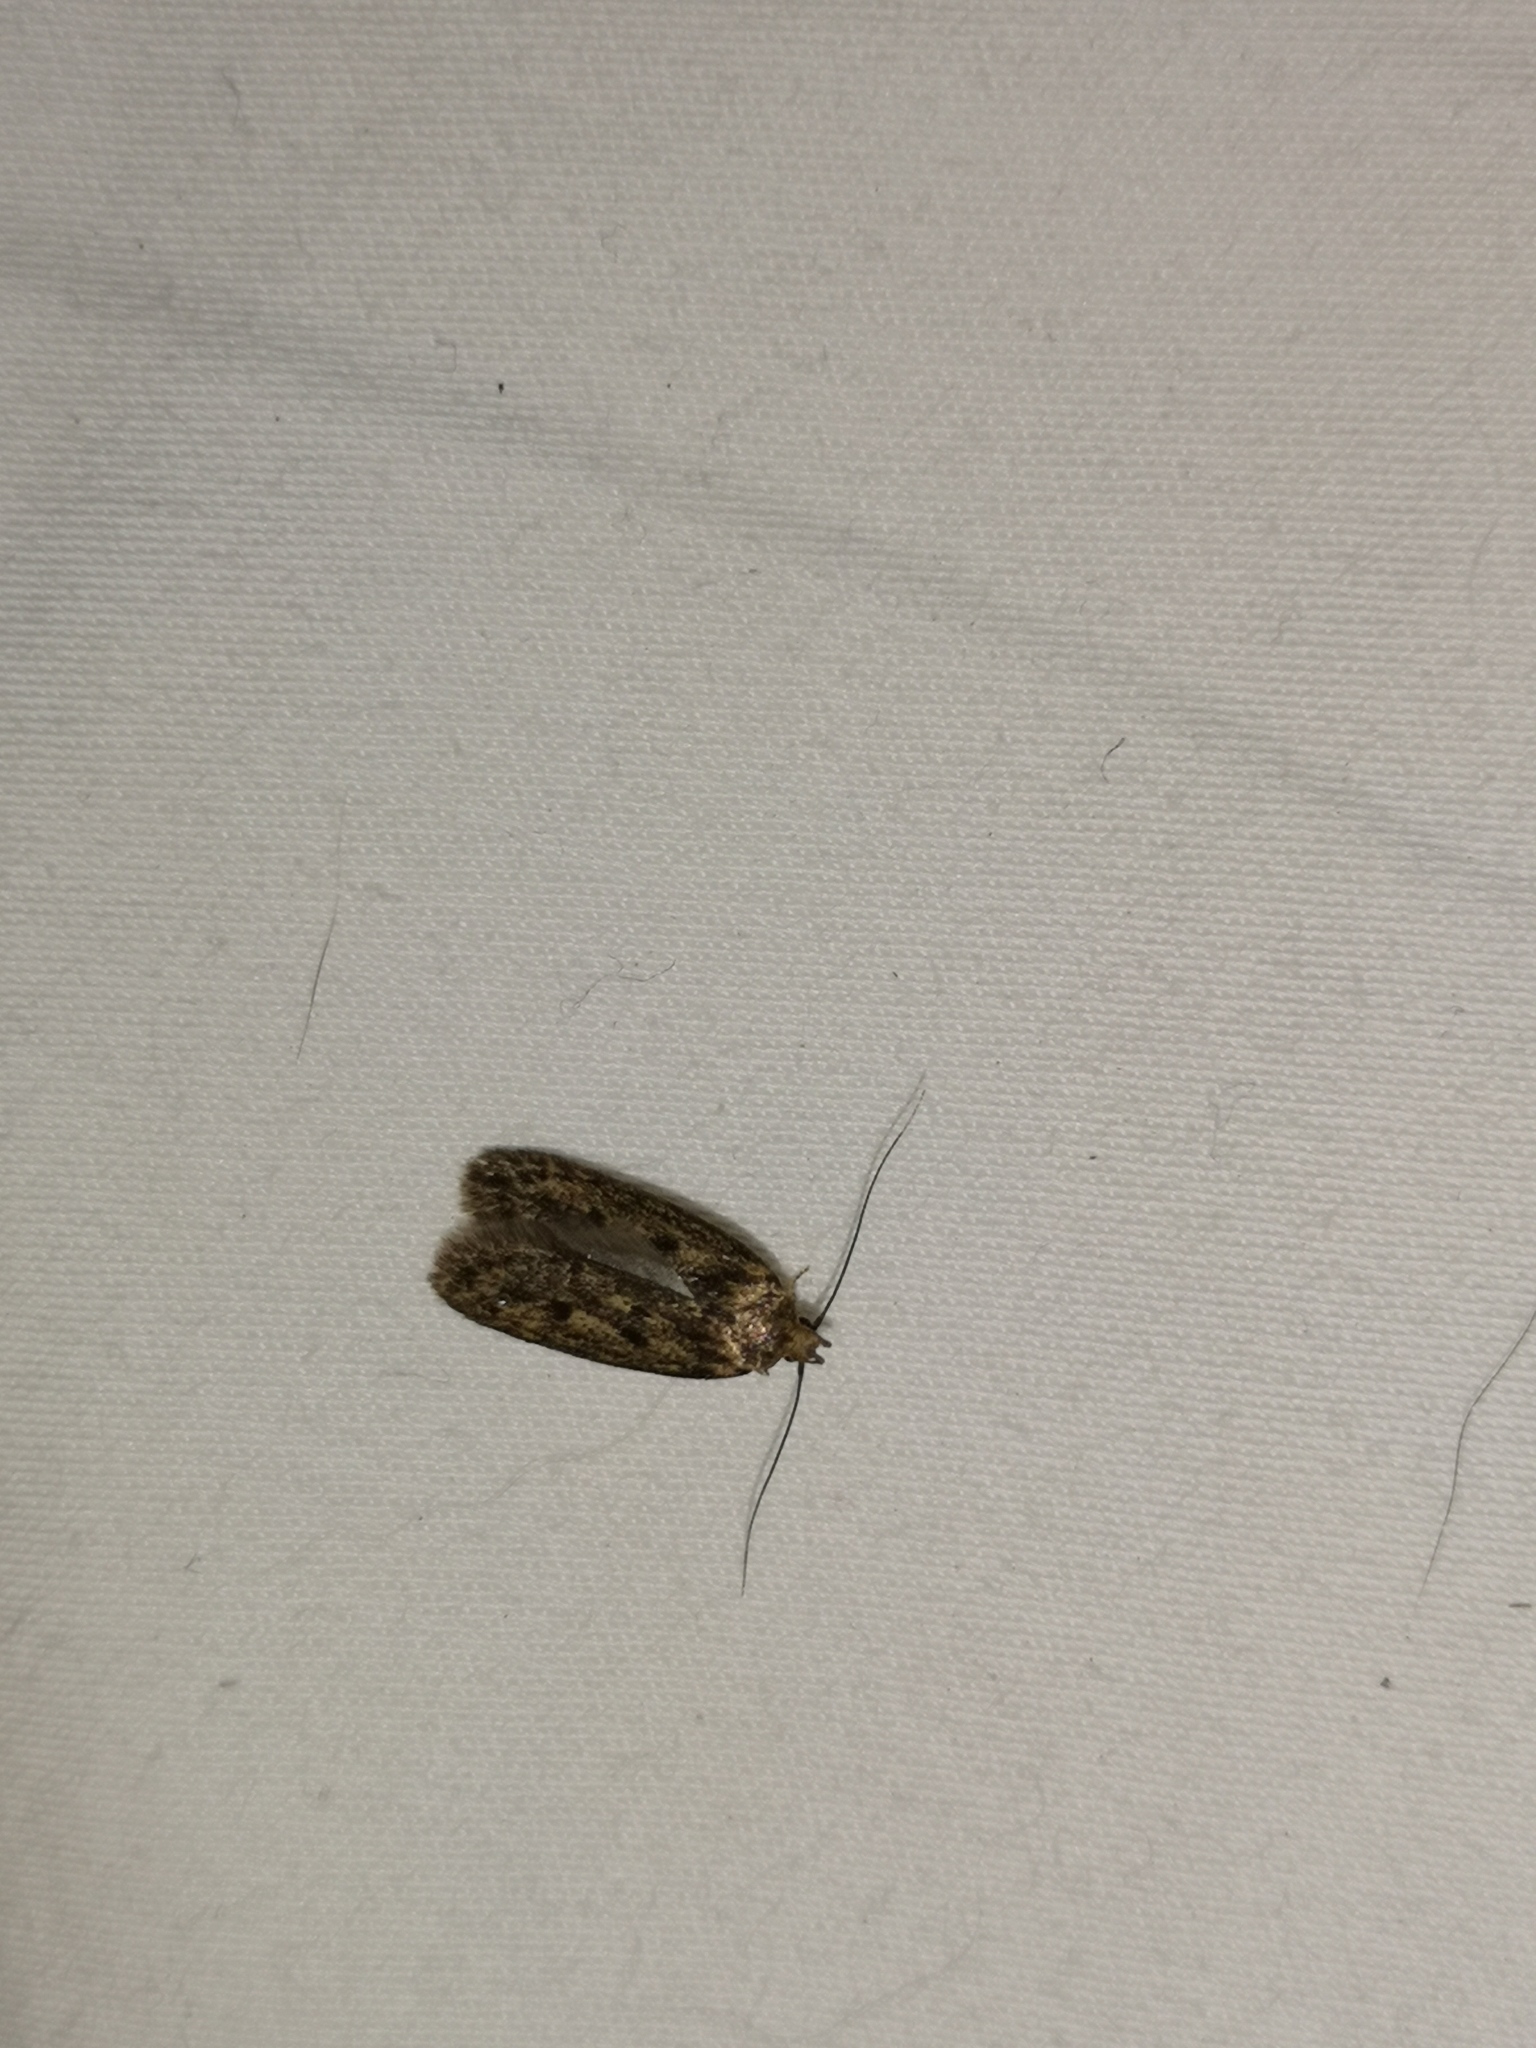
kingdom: Animalia
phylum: Arthropoda
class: Insecta
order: Lepidoptera
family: Oecophoridae
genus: Hofmannophila
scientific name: Hofmannophila pseudospretella
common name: Brown house moth
